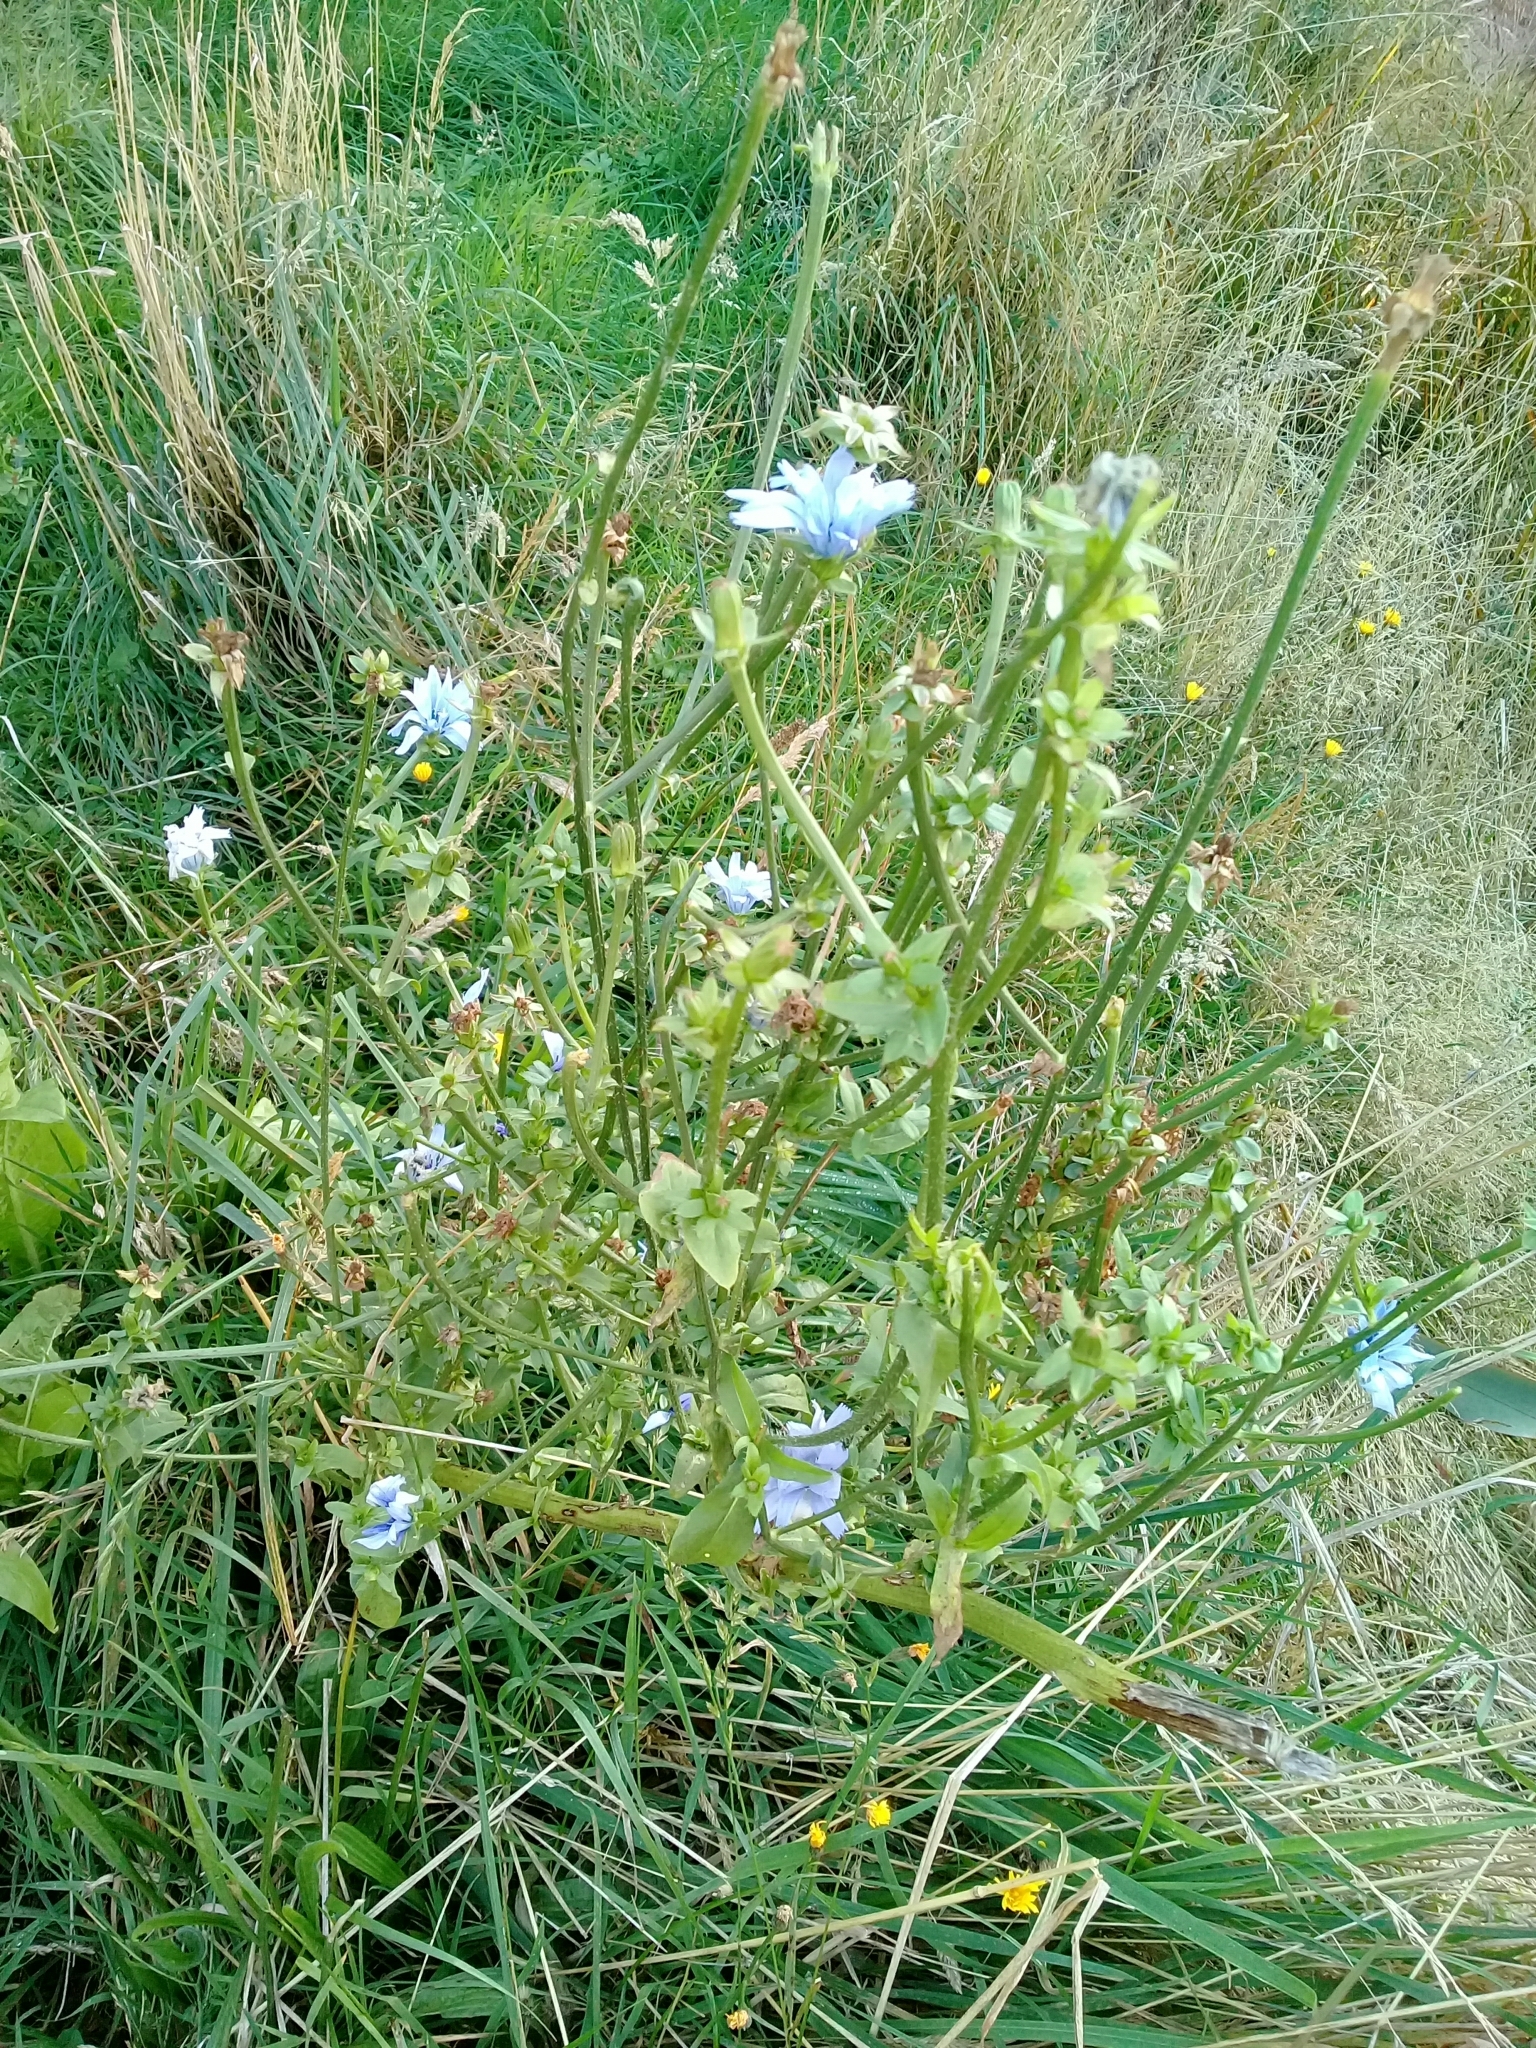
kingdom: Plantae
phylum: Tracheophyta
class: Magnoliopsida
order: Asterales
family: Asteraceae
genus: Cichorium
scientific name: Cichorium intybus
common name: Chicory
